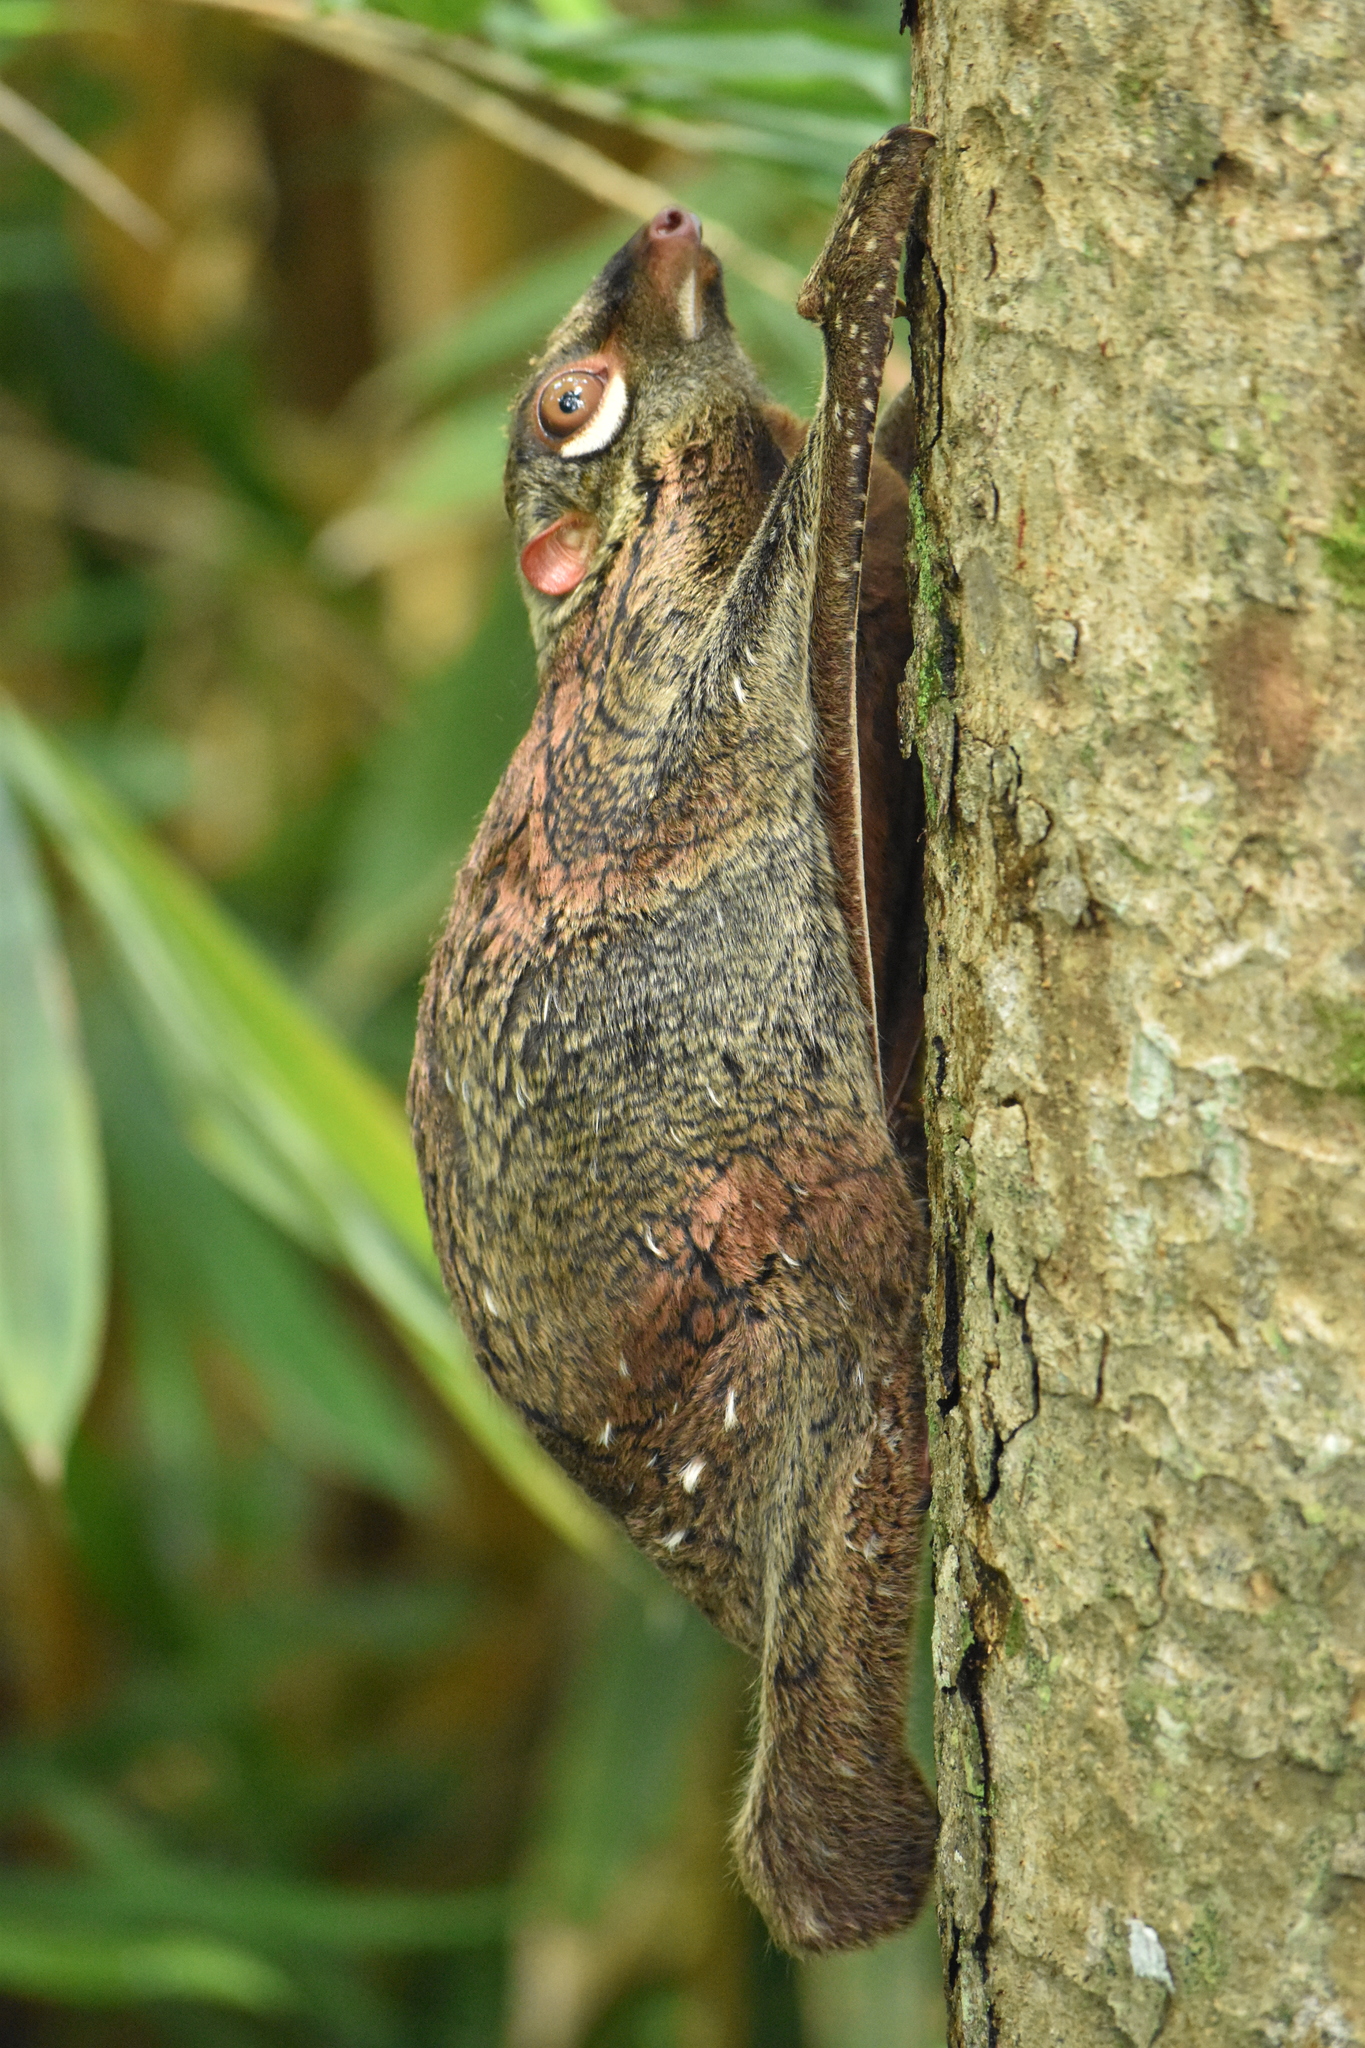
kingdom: Animalia
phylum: Chordata
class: Mammalia
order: Dermoptera
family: Cynocephalidae
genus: Galeopterus
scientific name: Galeopterus variegatus
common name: Sunda flying lemur
